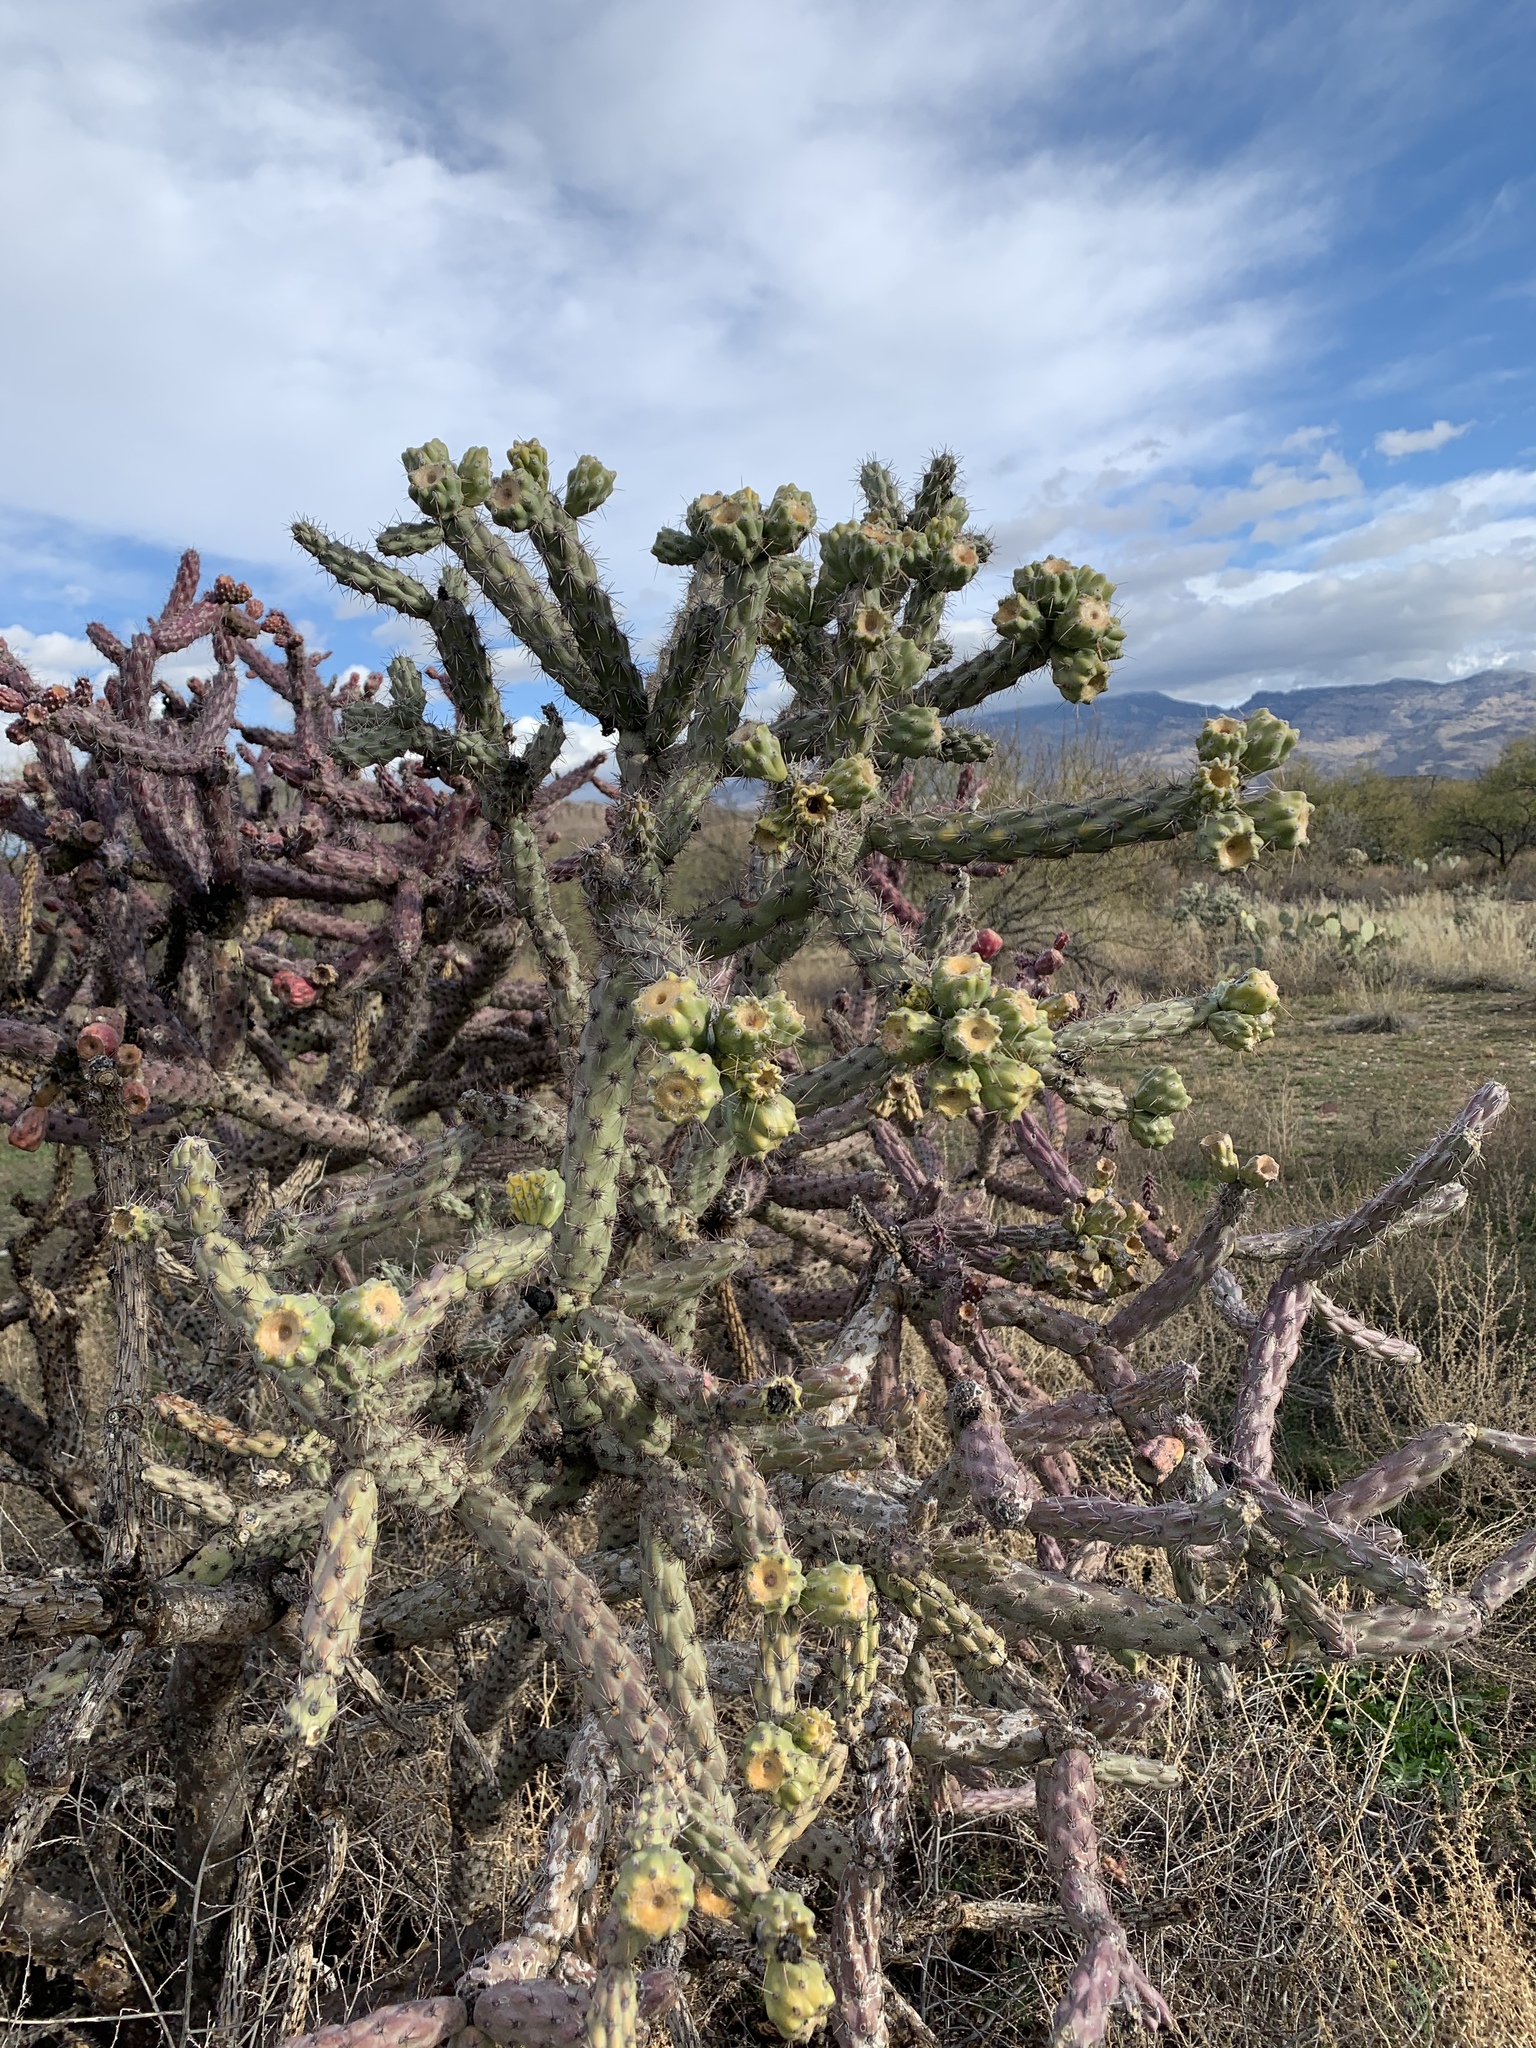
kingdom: Plantae
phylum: Tracheophyta
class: Magnoliopsida
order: Caryophyllales
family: Cactaceae
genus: Cylindropuntia
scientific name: Cylindropuntia thurberi
